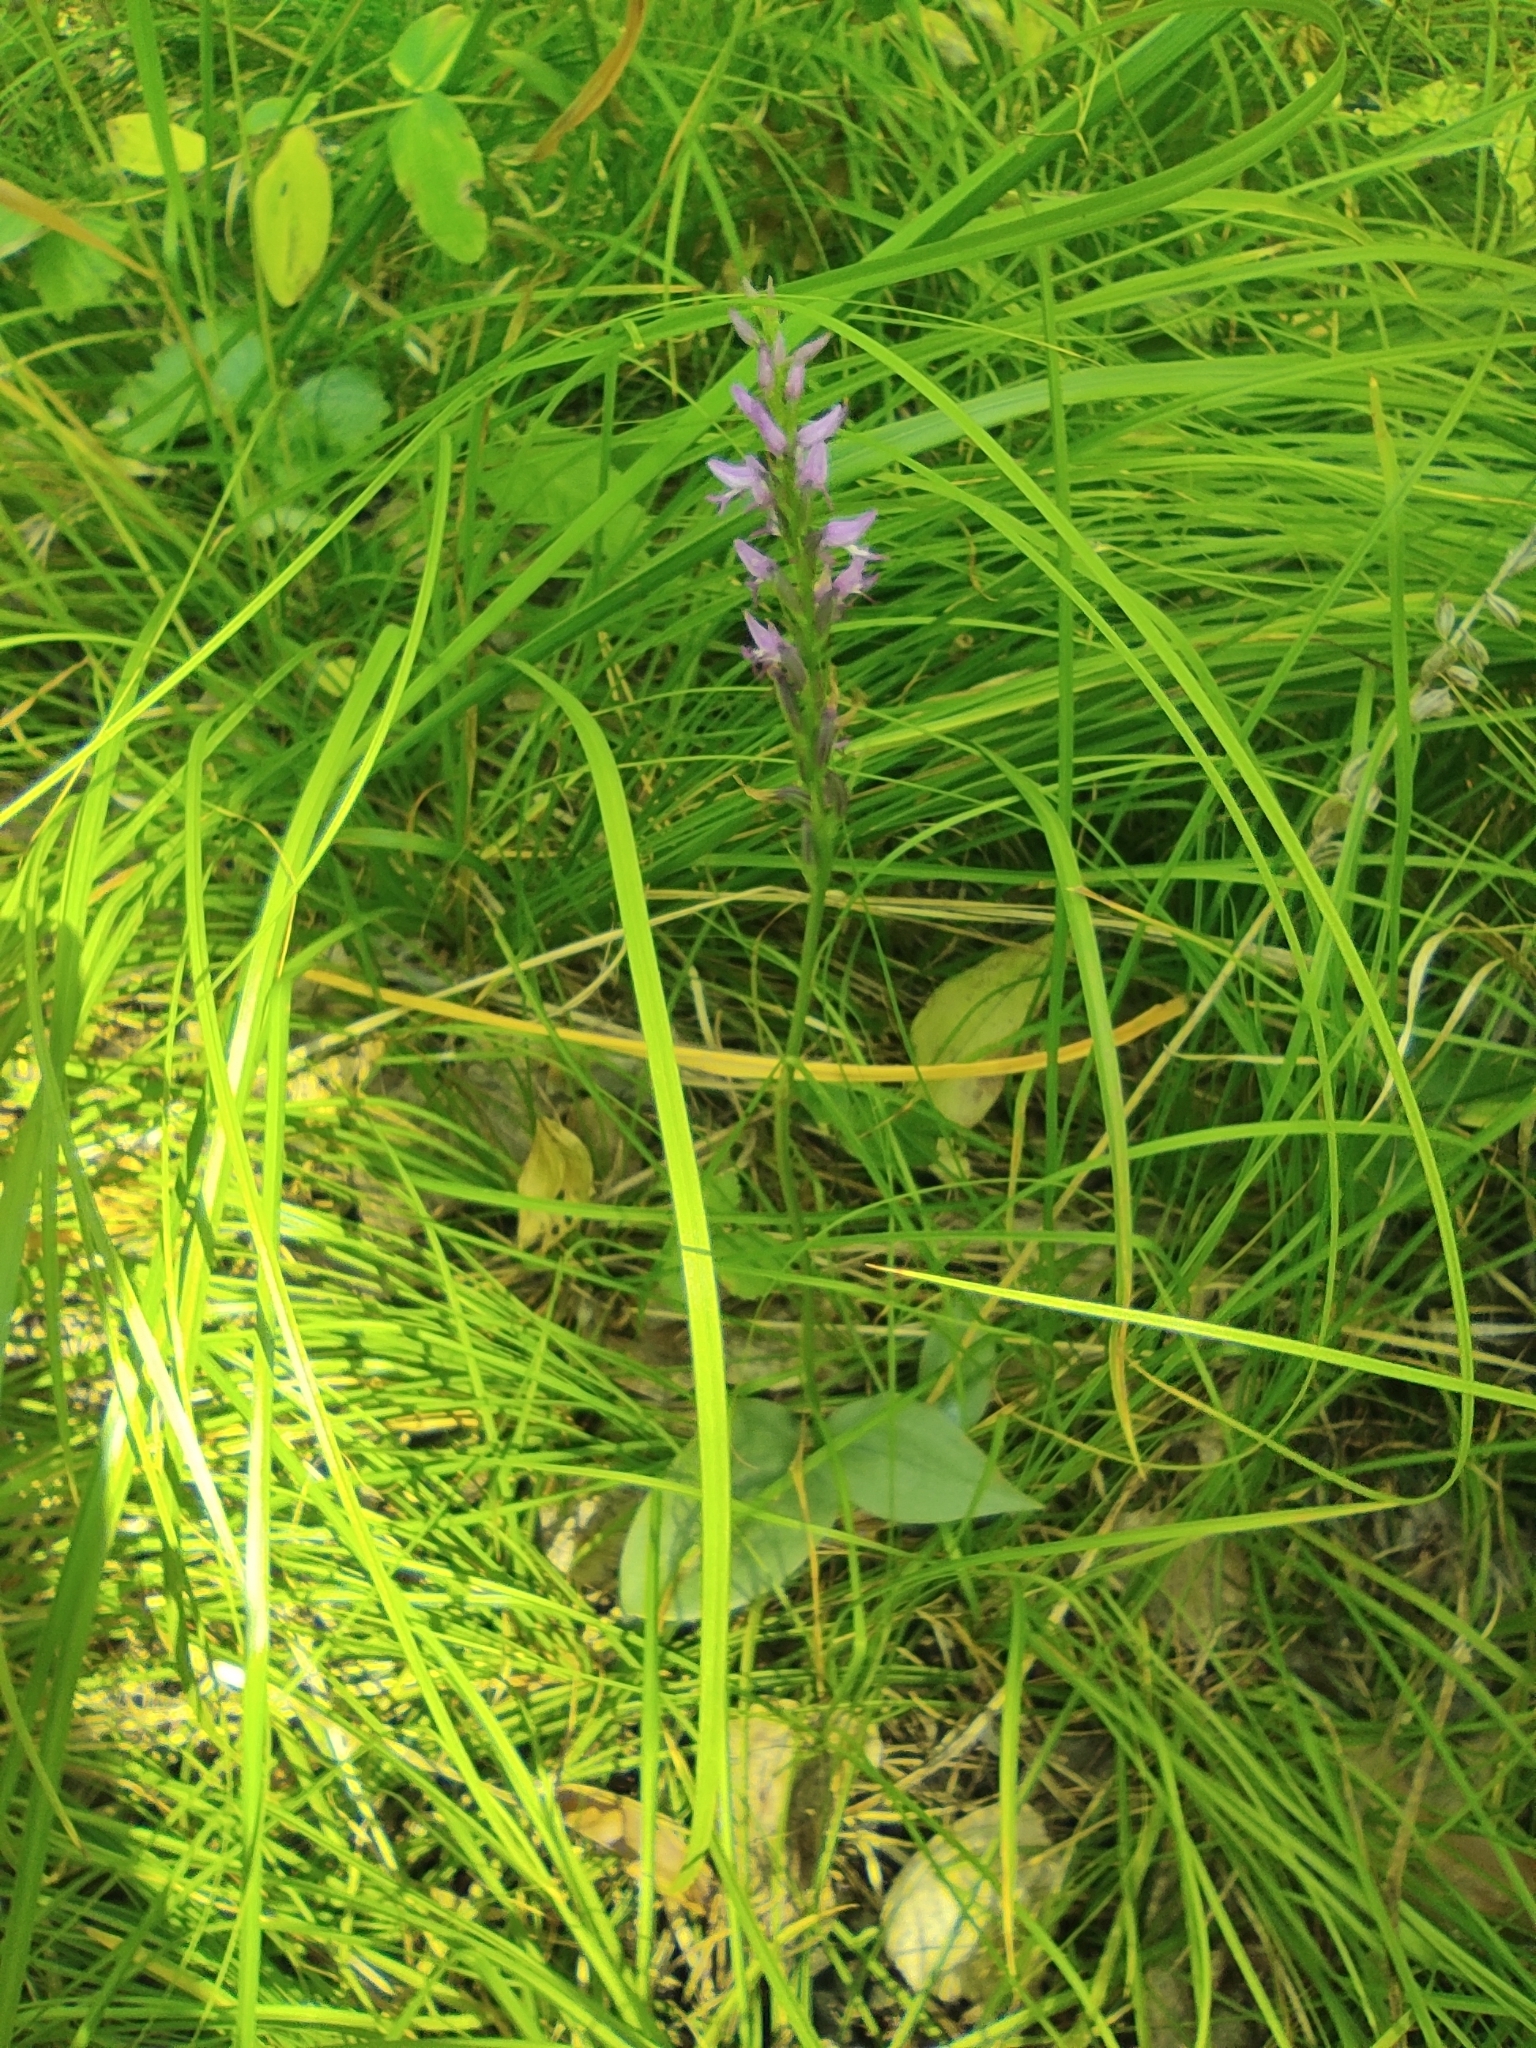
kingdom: Plantae
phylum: Tracheophyta
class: Liliopsida
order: Asparagales
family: Orchidaceae
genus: Hemipilia
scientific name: Hemipilia cucullata
